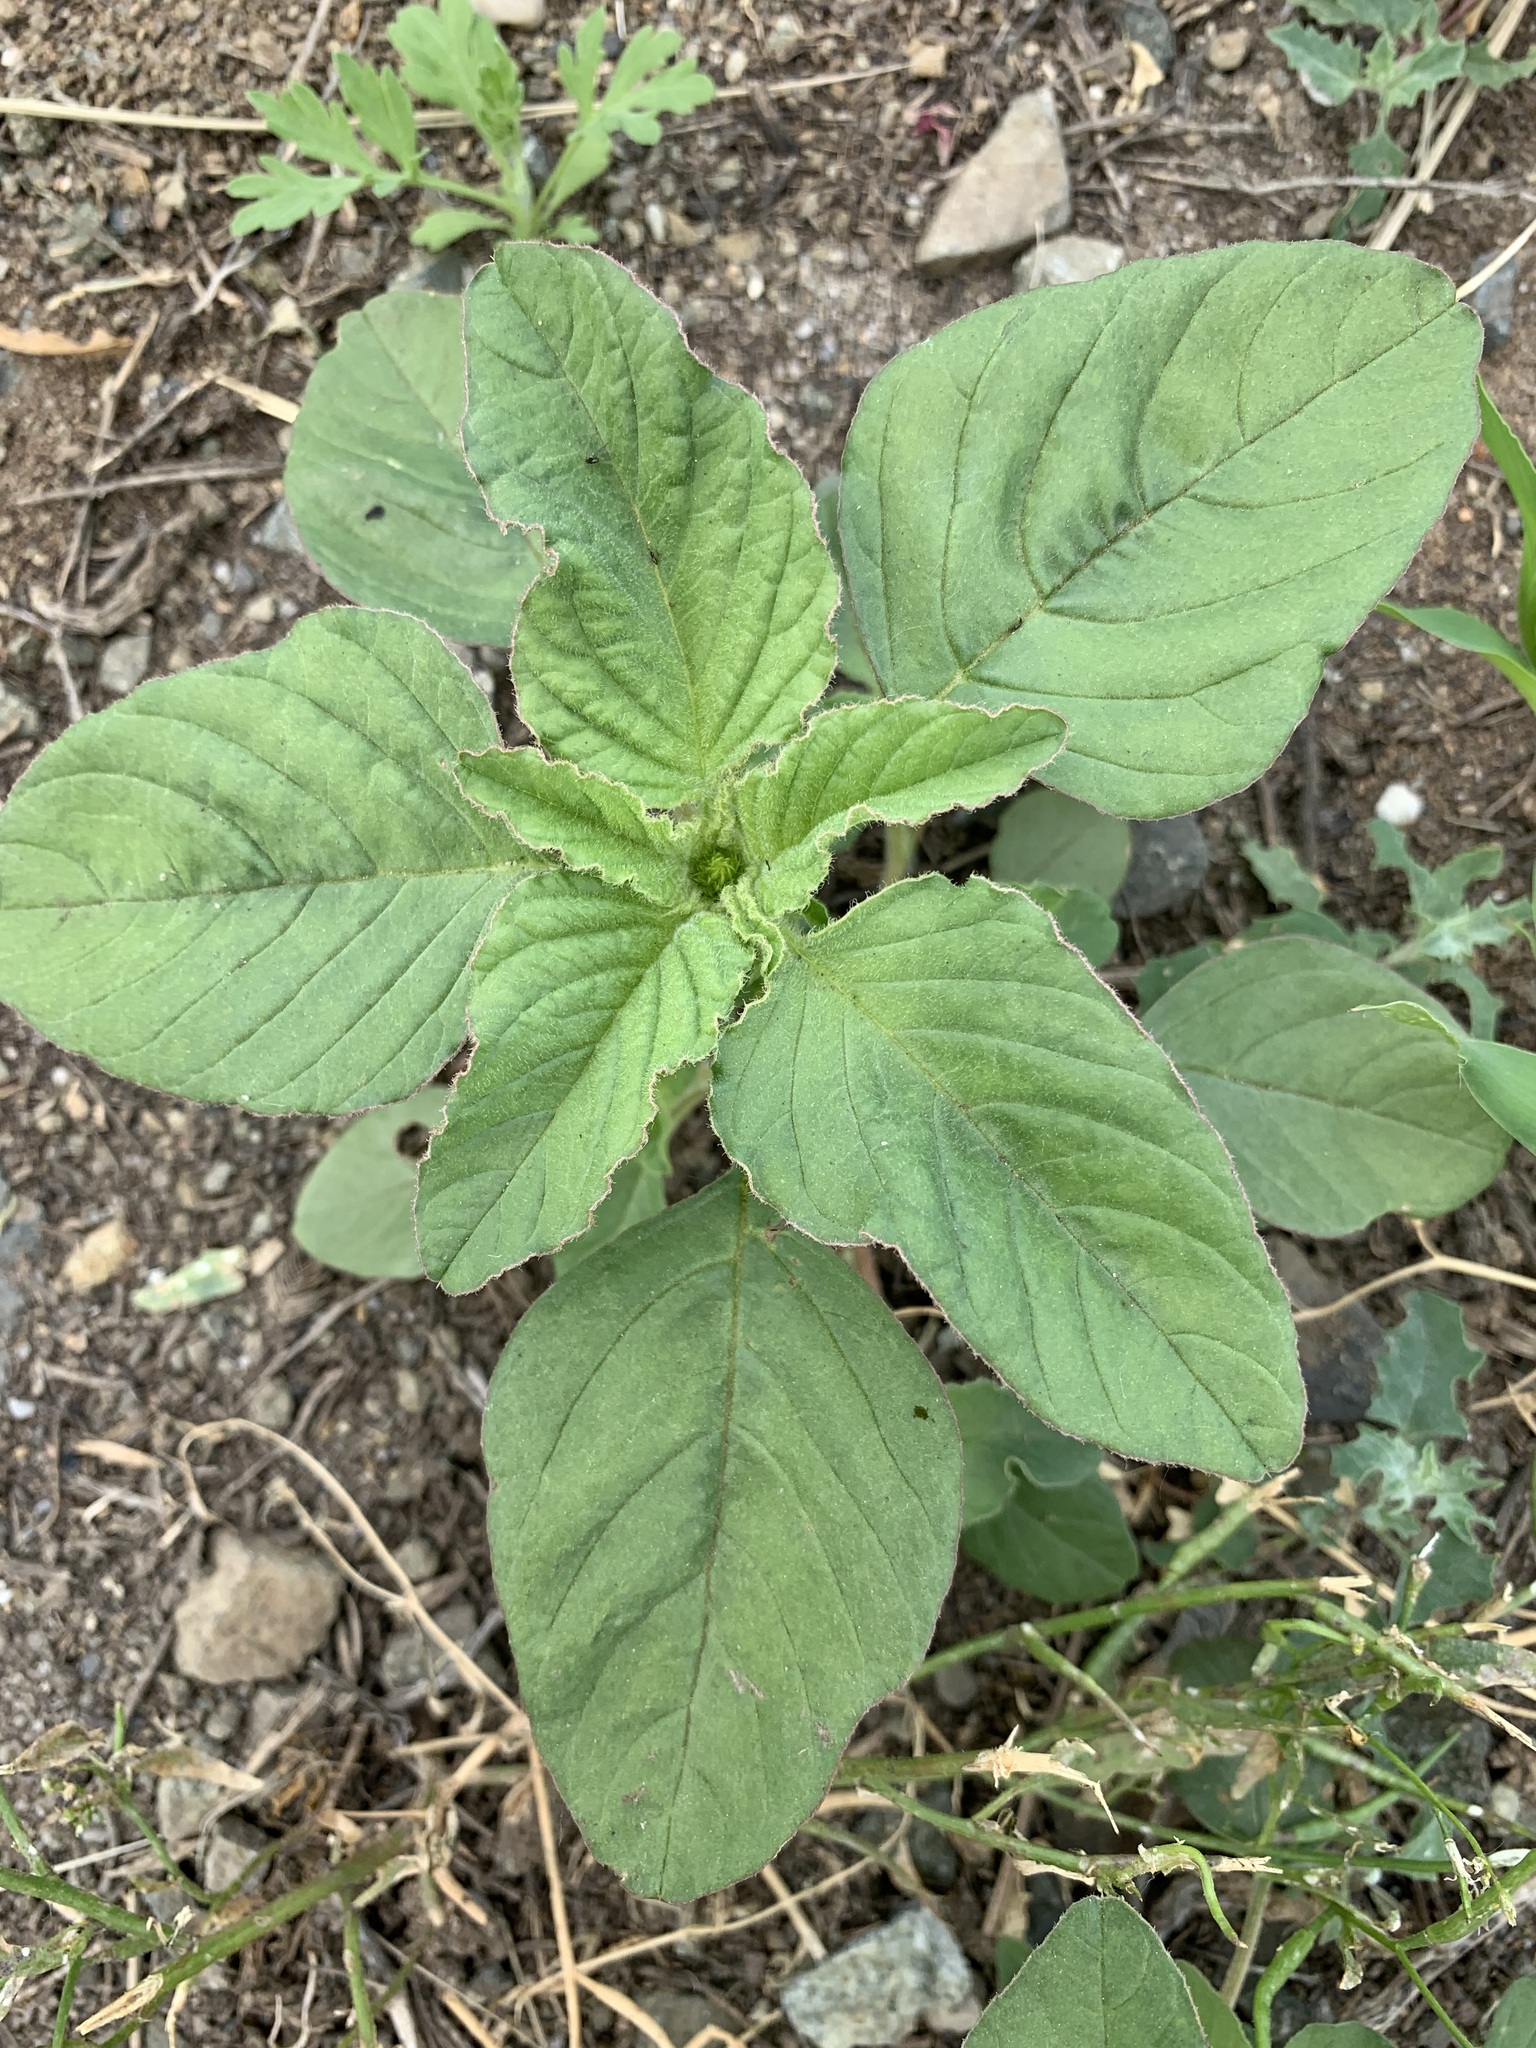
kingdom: Plantae
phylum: Tracheophyta
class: Magnoliopsida
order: Caryophyllales
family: Amaranthaceae
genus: Amaranthus
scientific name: Amaranthus retroflexus
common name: Redroot amaranth
